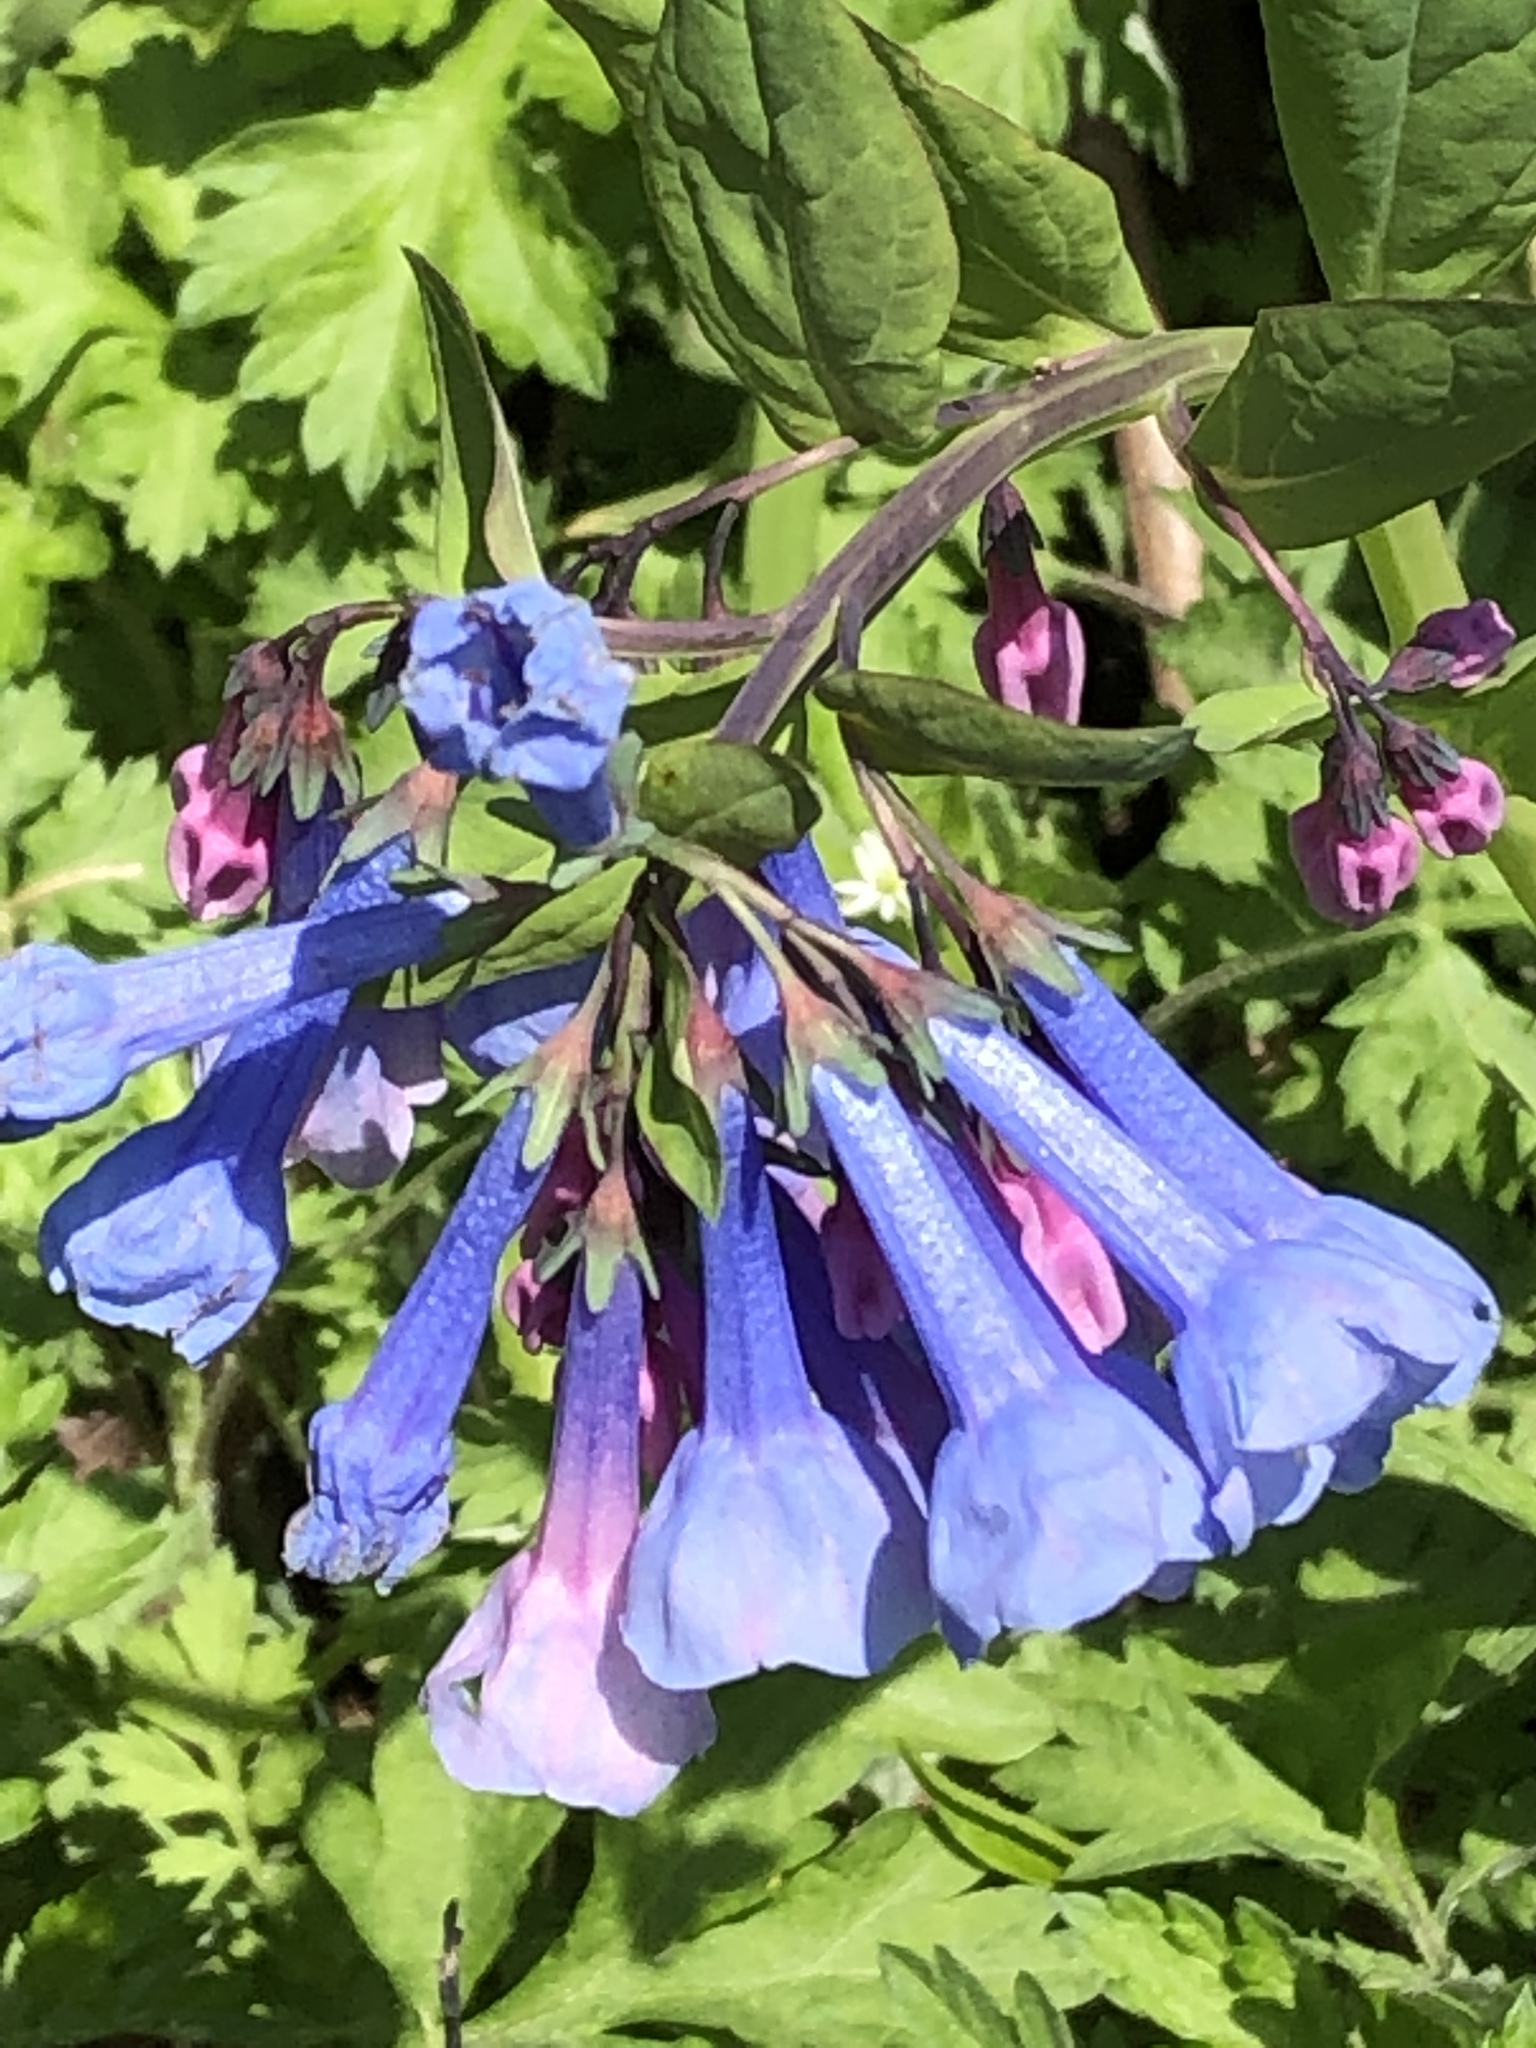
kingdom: Plantae
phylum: Tracheophyta
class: Magnoliopsida
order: Boraginales
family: Boraginaceae
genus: Mertensia
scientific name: Mertensia virginica
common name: Virginia bluebells
